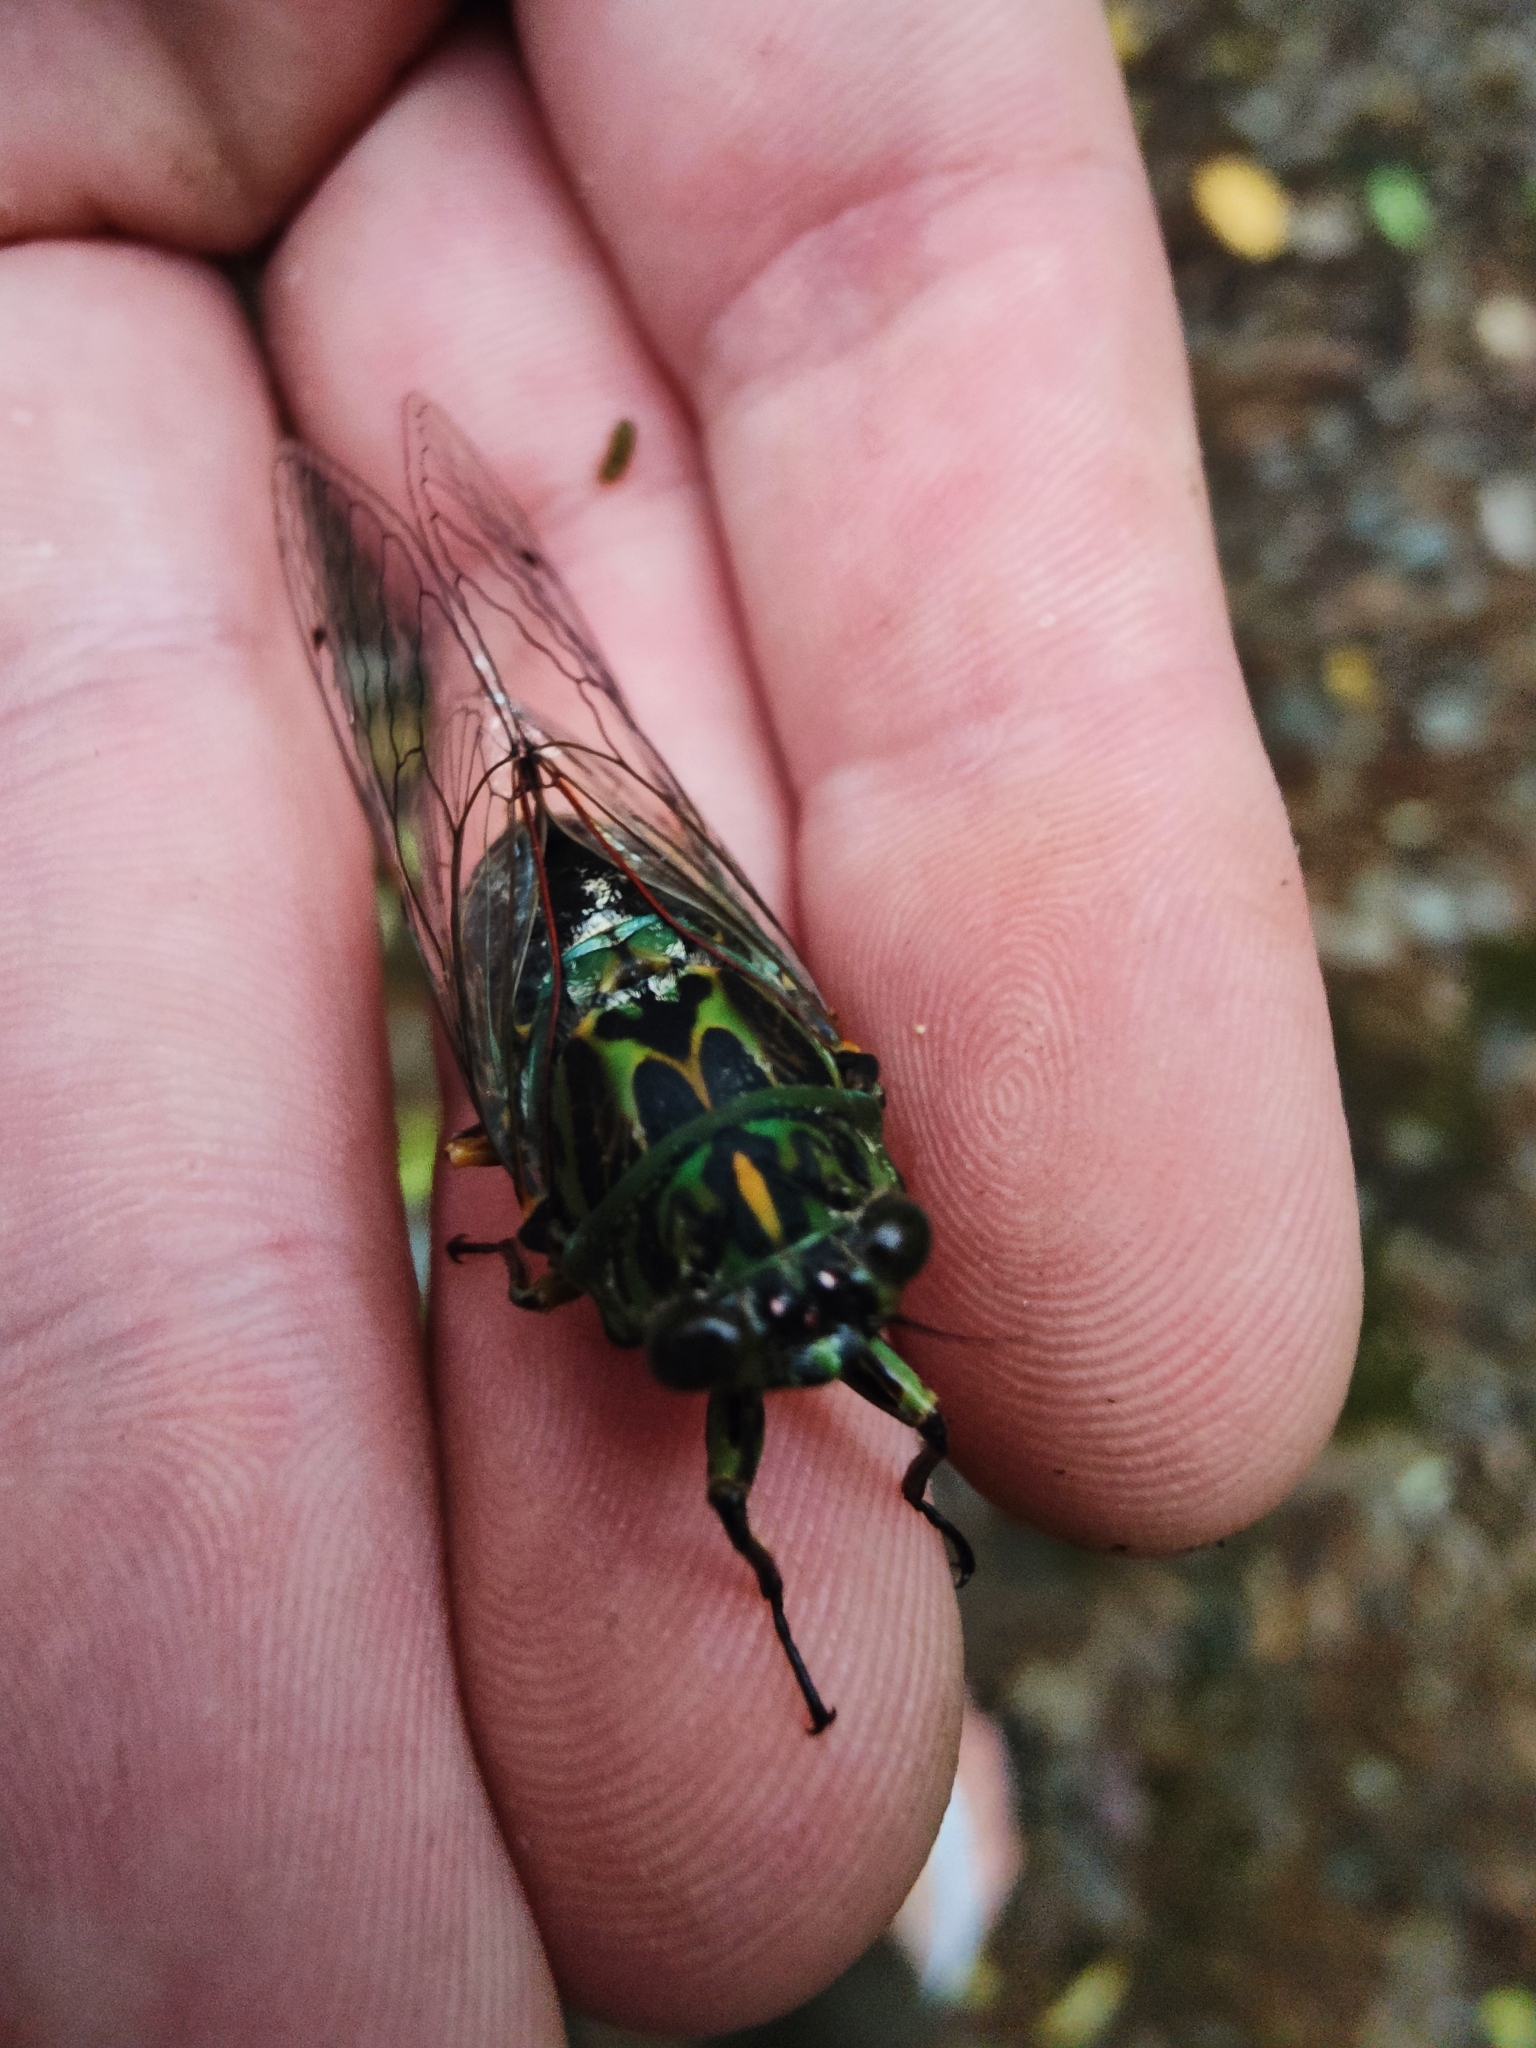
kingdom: Animalia
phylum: Arthropoda
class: Insecta
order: Hemiptera
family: Cicadidae
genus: Amphipsalta
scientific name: Amphipsalta zelandica
